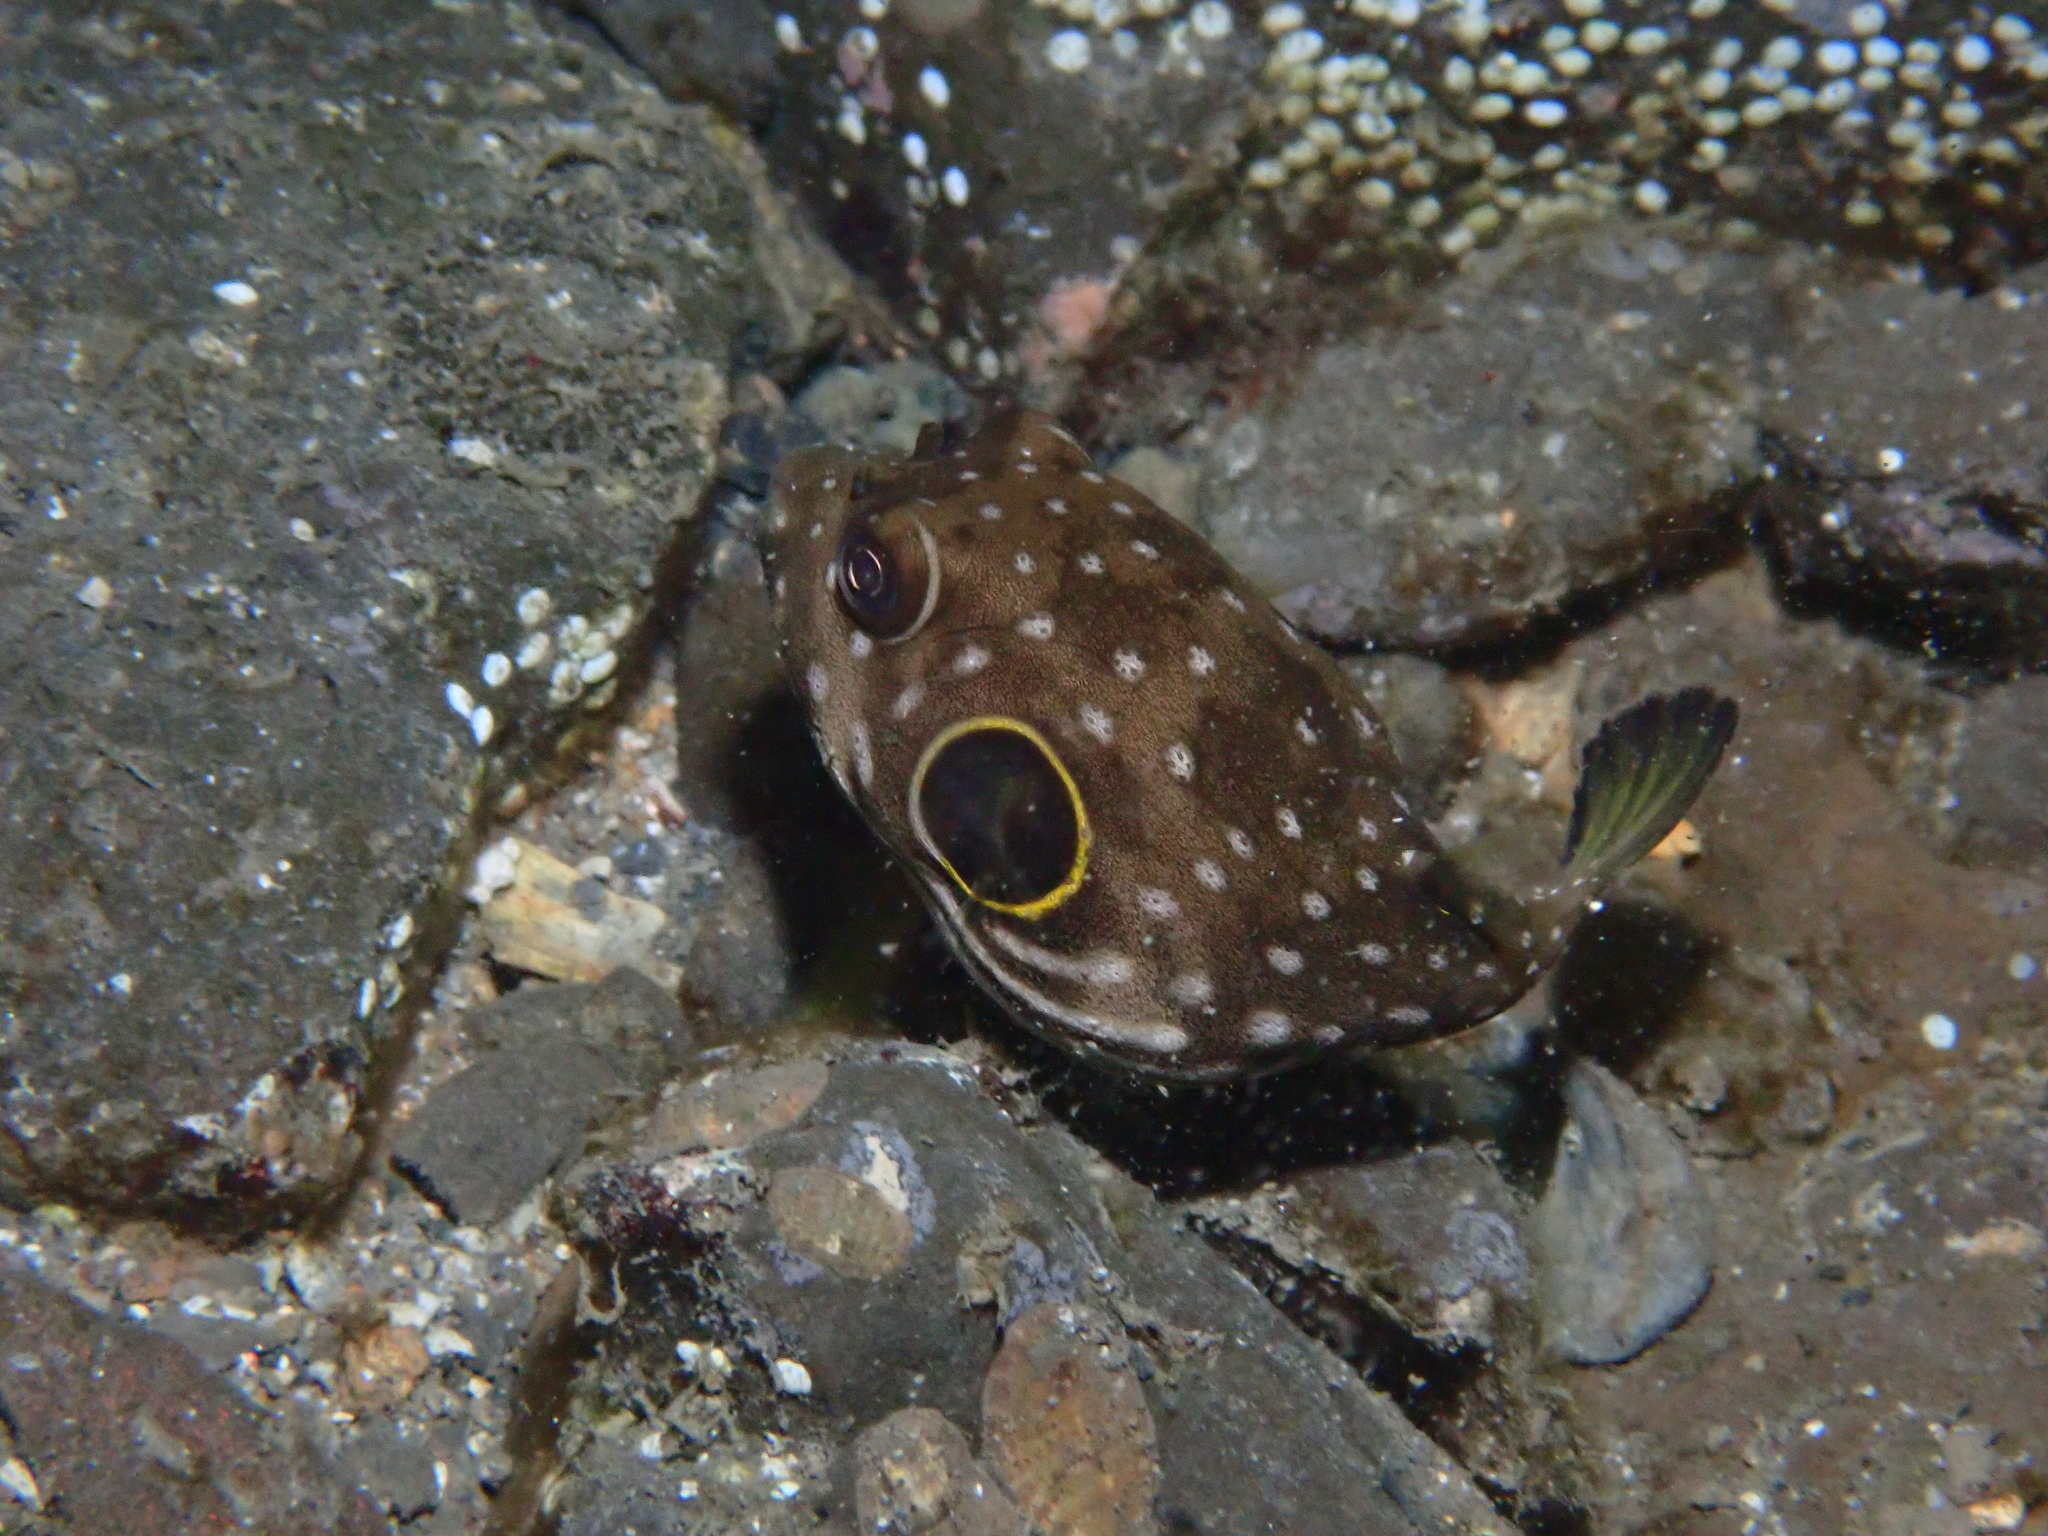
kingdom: Animalia
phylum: Chordata
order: Tetraodontiformes
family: Tetraodontidae
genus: Arothron
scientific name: Arothron hispidus
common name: Stripebelly puffer
